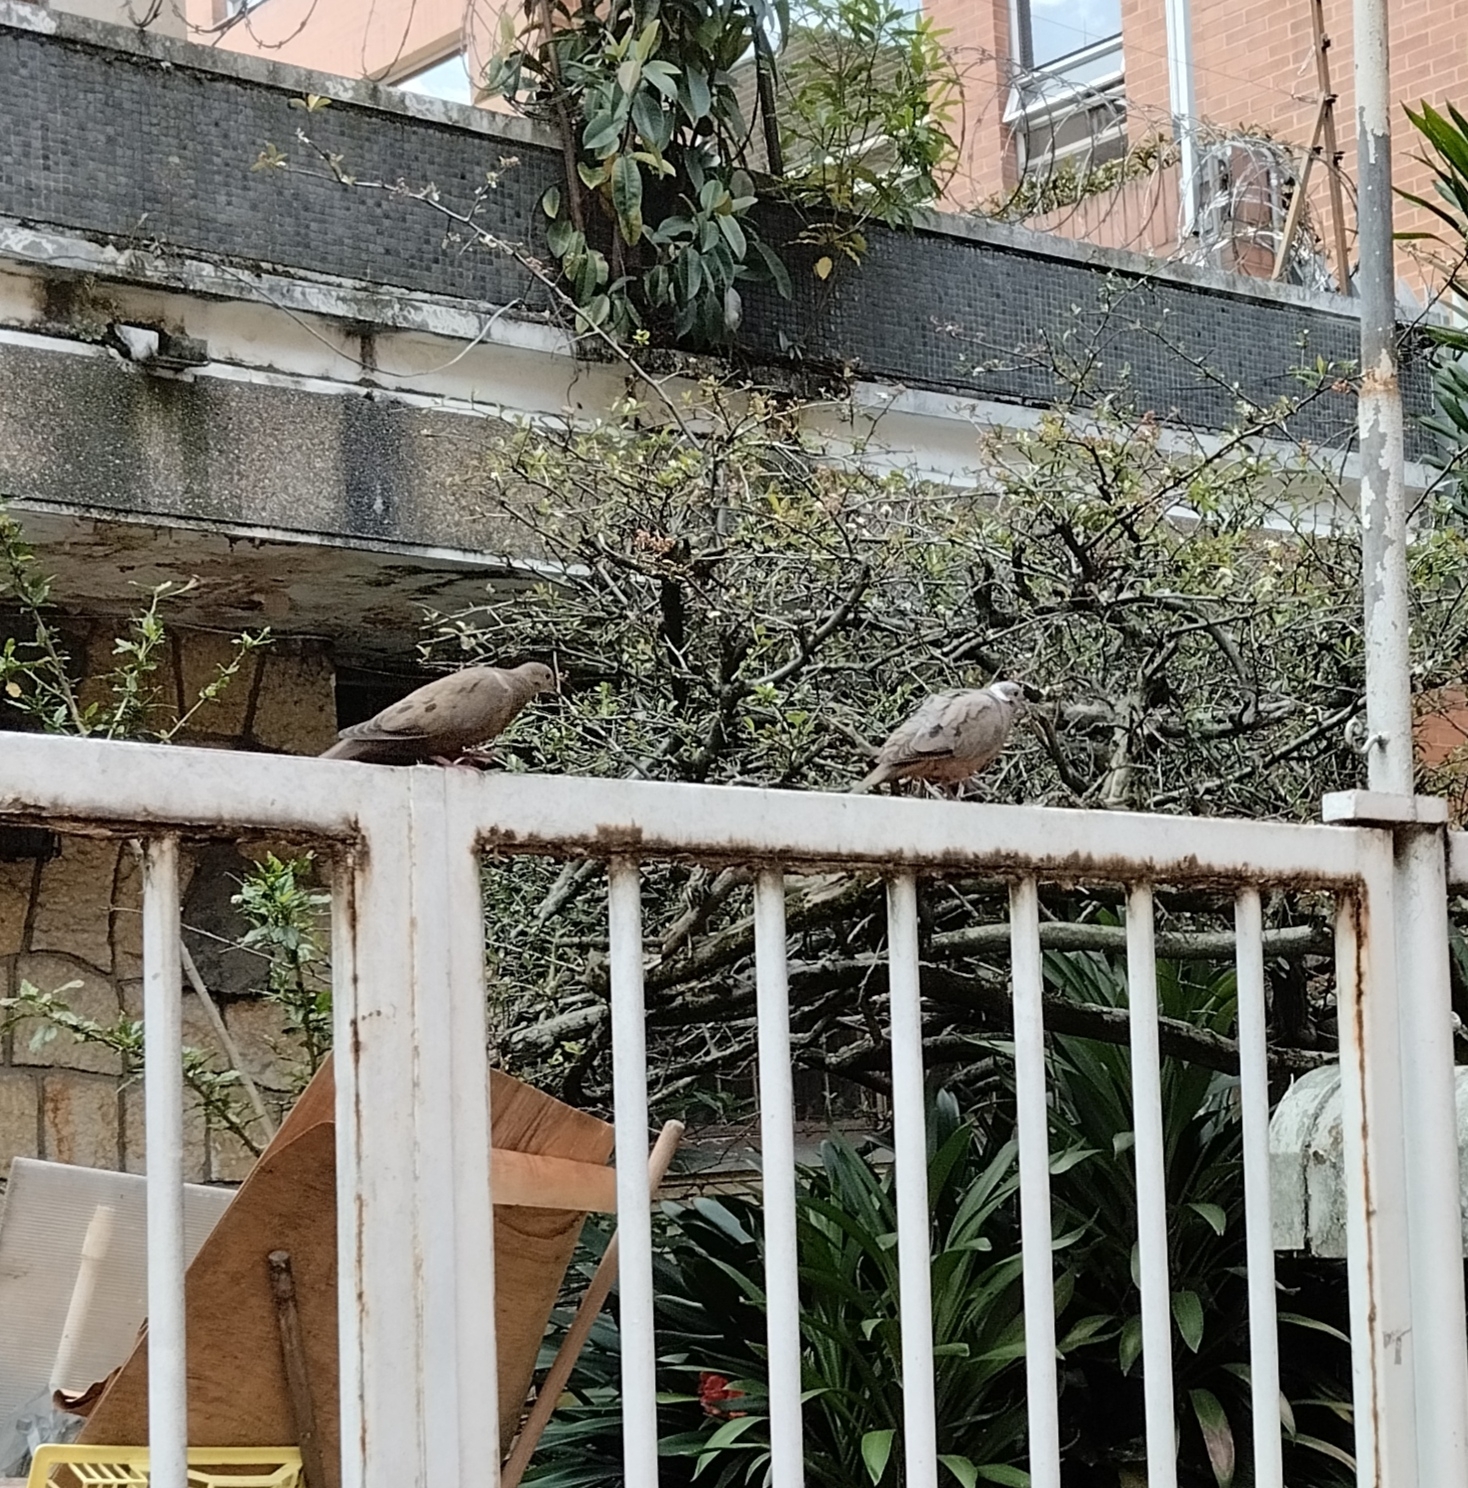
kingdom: Animalia
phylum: Chordata
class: Aves
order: Columbiformes
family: Columbidae
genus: Zenaida
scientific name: Zenaida auriculata
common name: Eared dove
